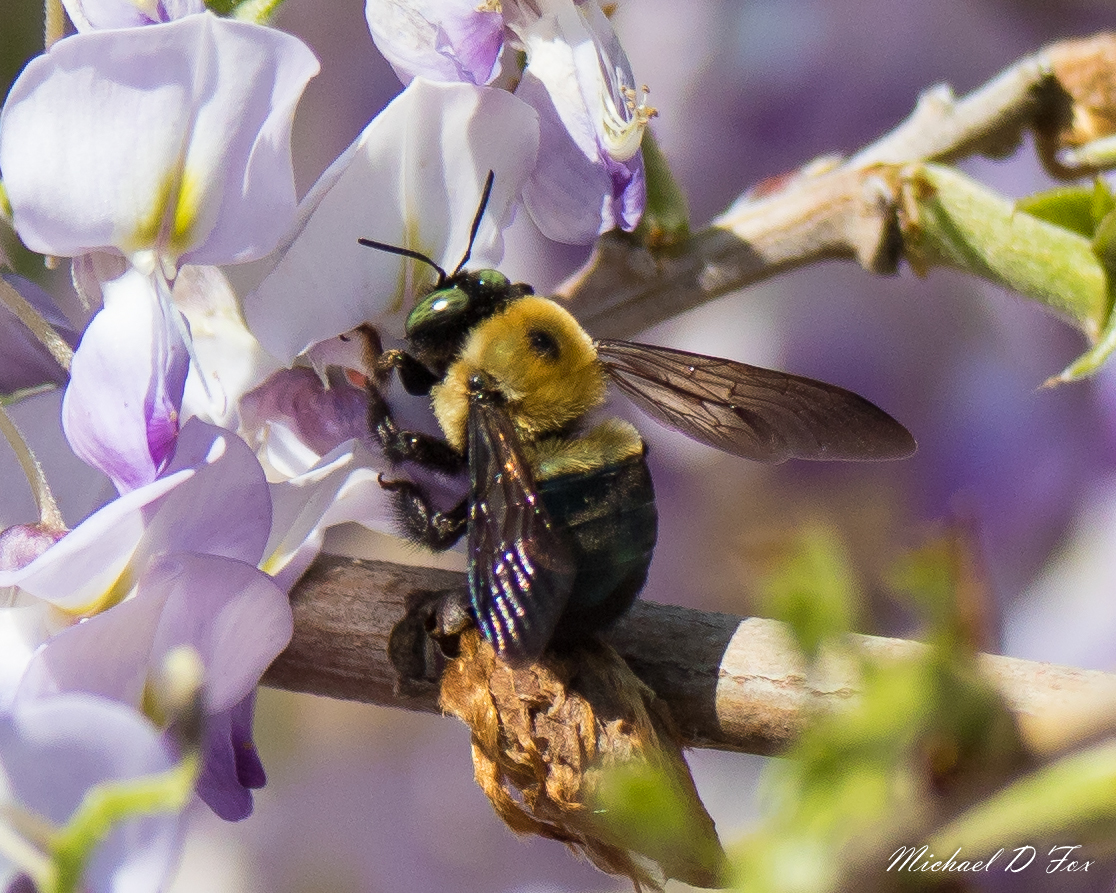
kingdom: Animalia
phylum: Arthropoda
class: Insecta
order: Hymenoptera
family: Apidae
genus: Xylocopa
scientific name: Xylocopa virginica
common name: Carpenter bee
